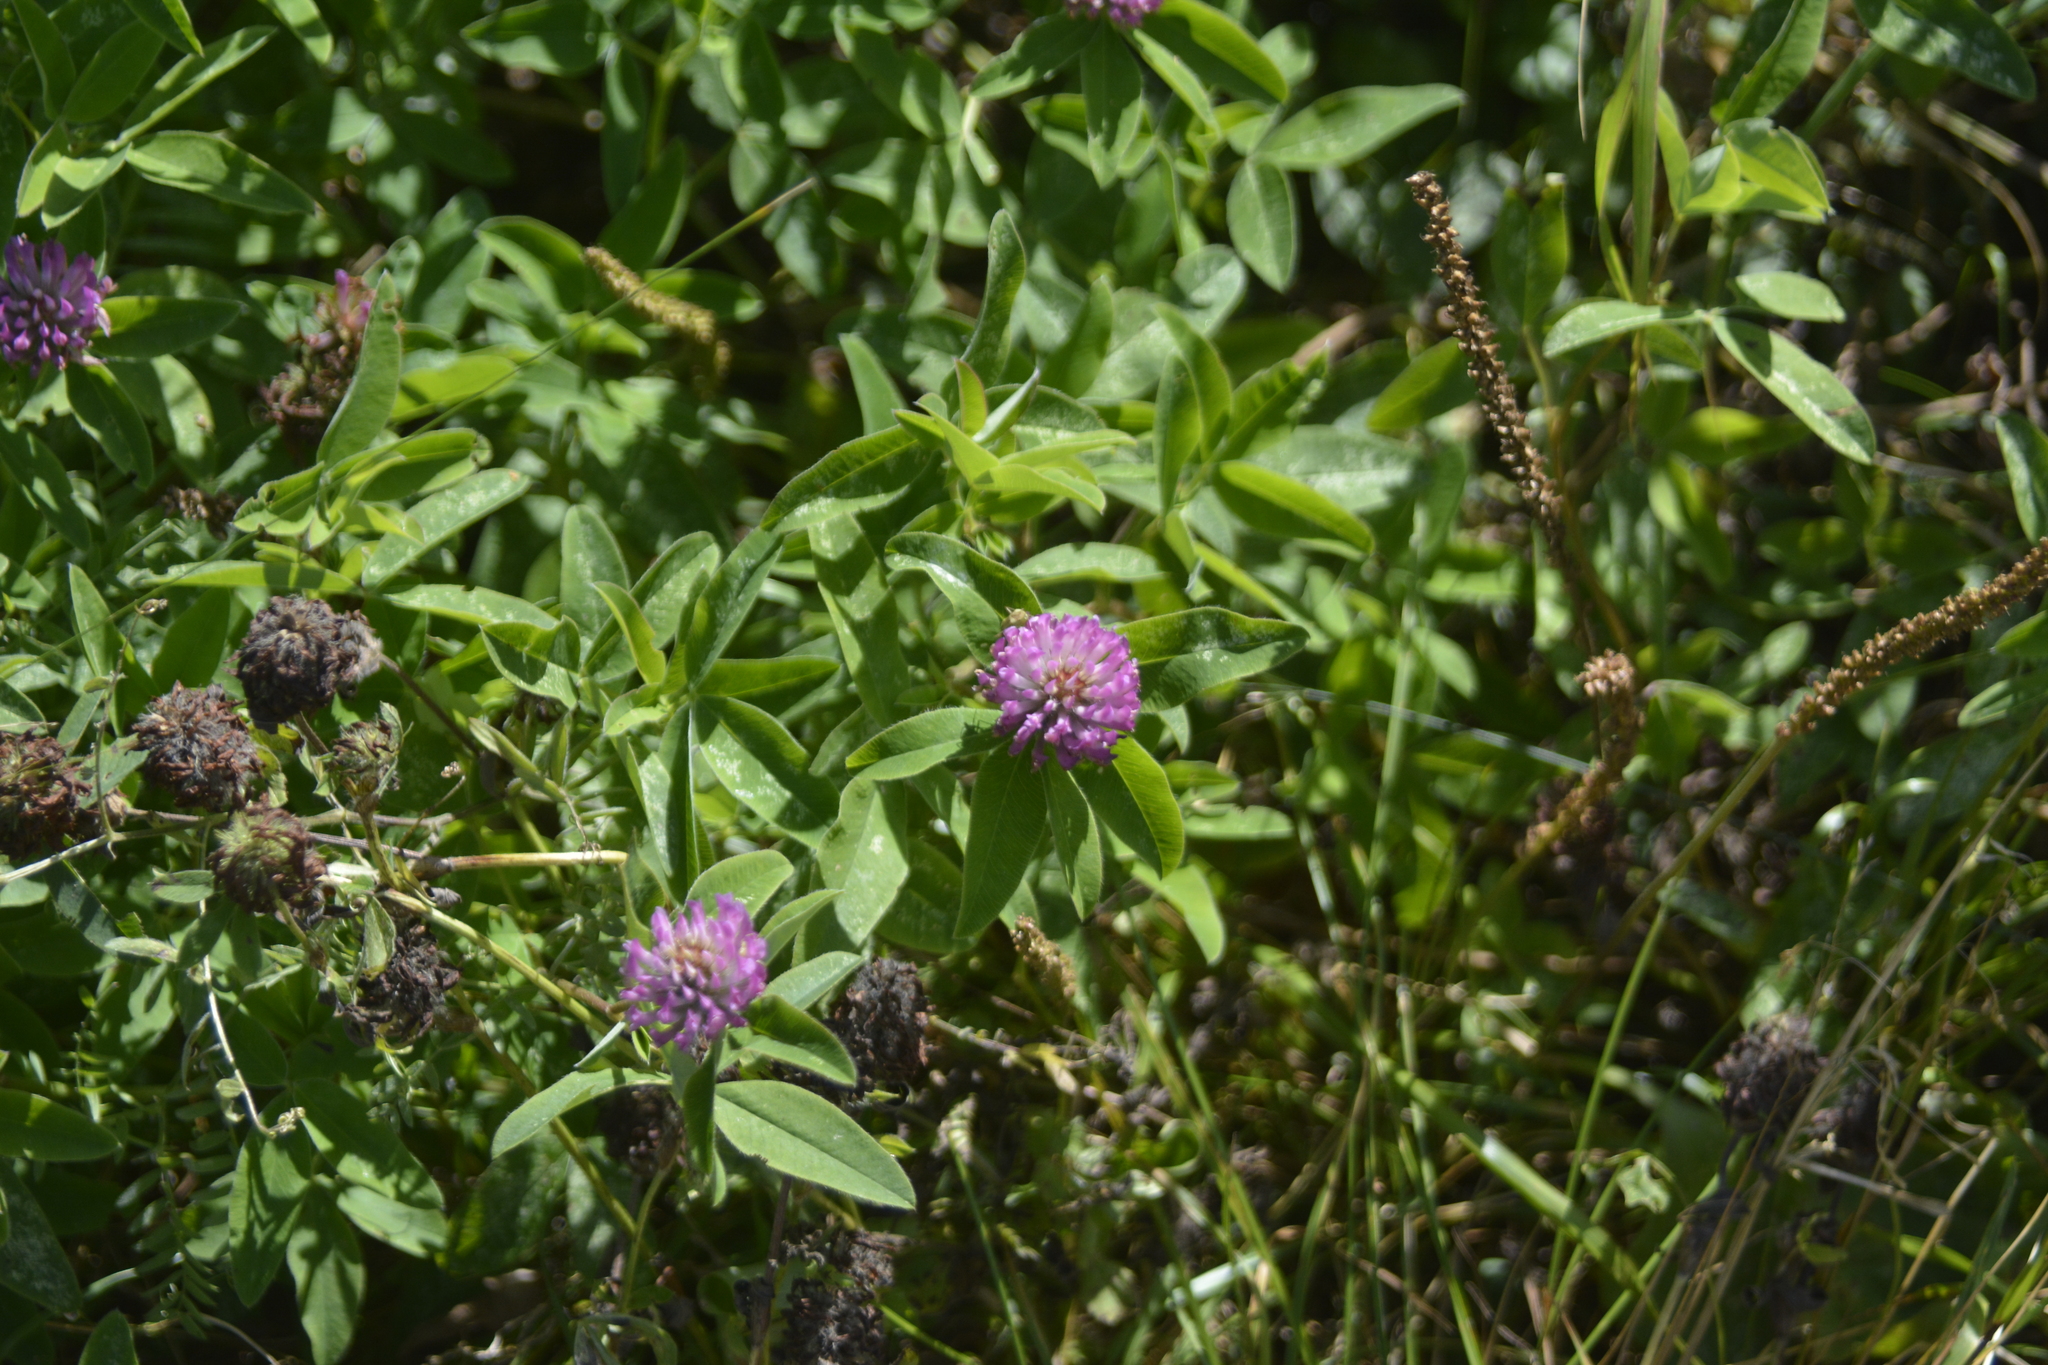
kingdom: Plantae
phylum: Tracheophyta
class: Magnoliopsida
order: Fabales
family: Fabaceae
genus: Trifolium
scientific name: Trifolium medium
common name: Zigzag clover
